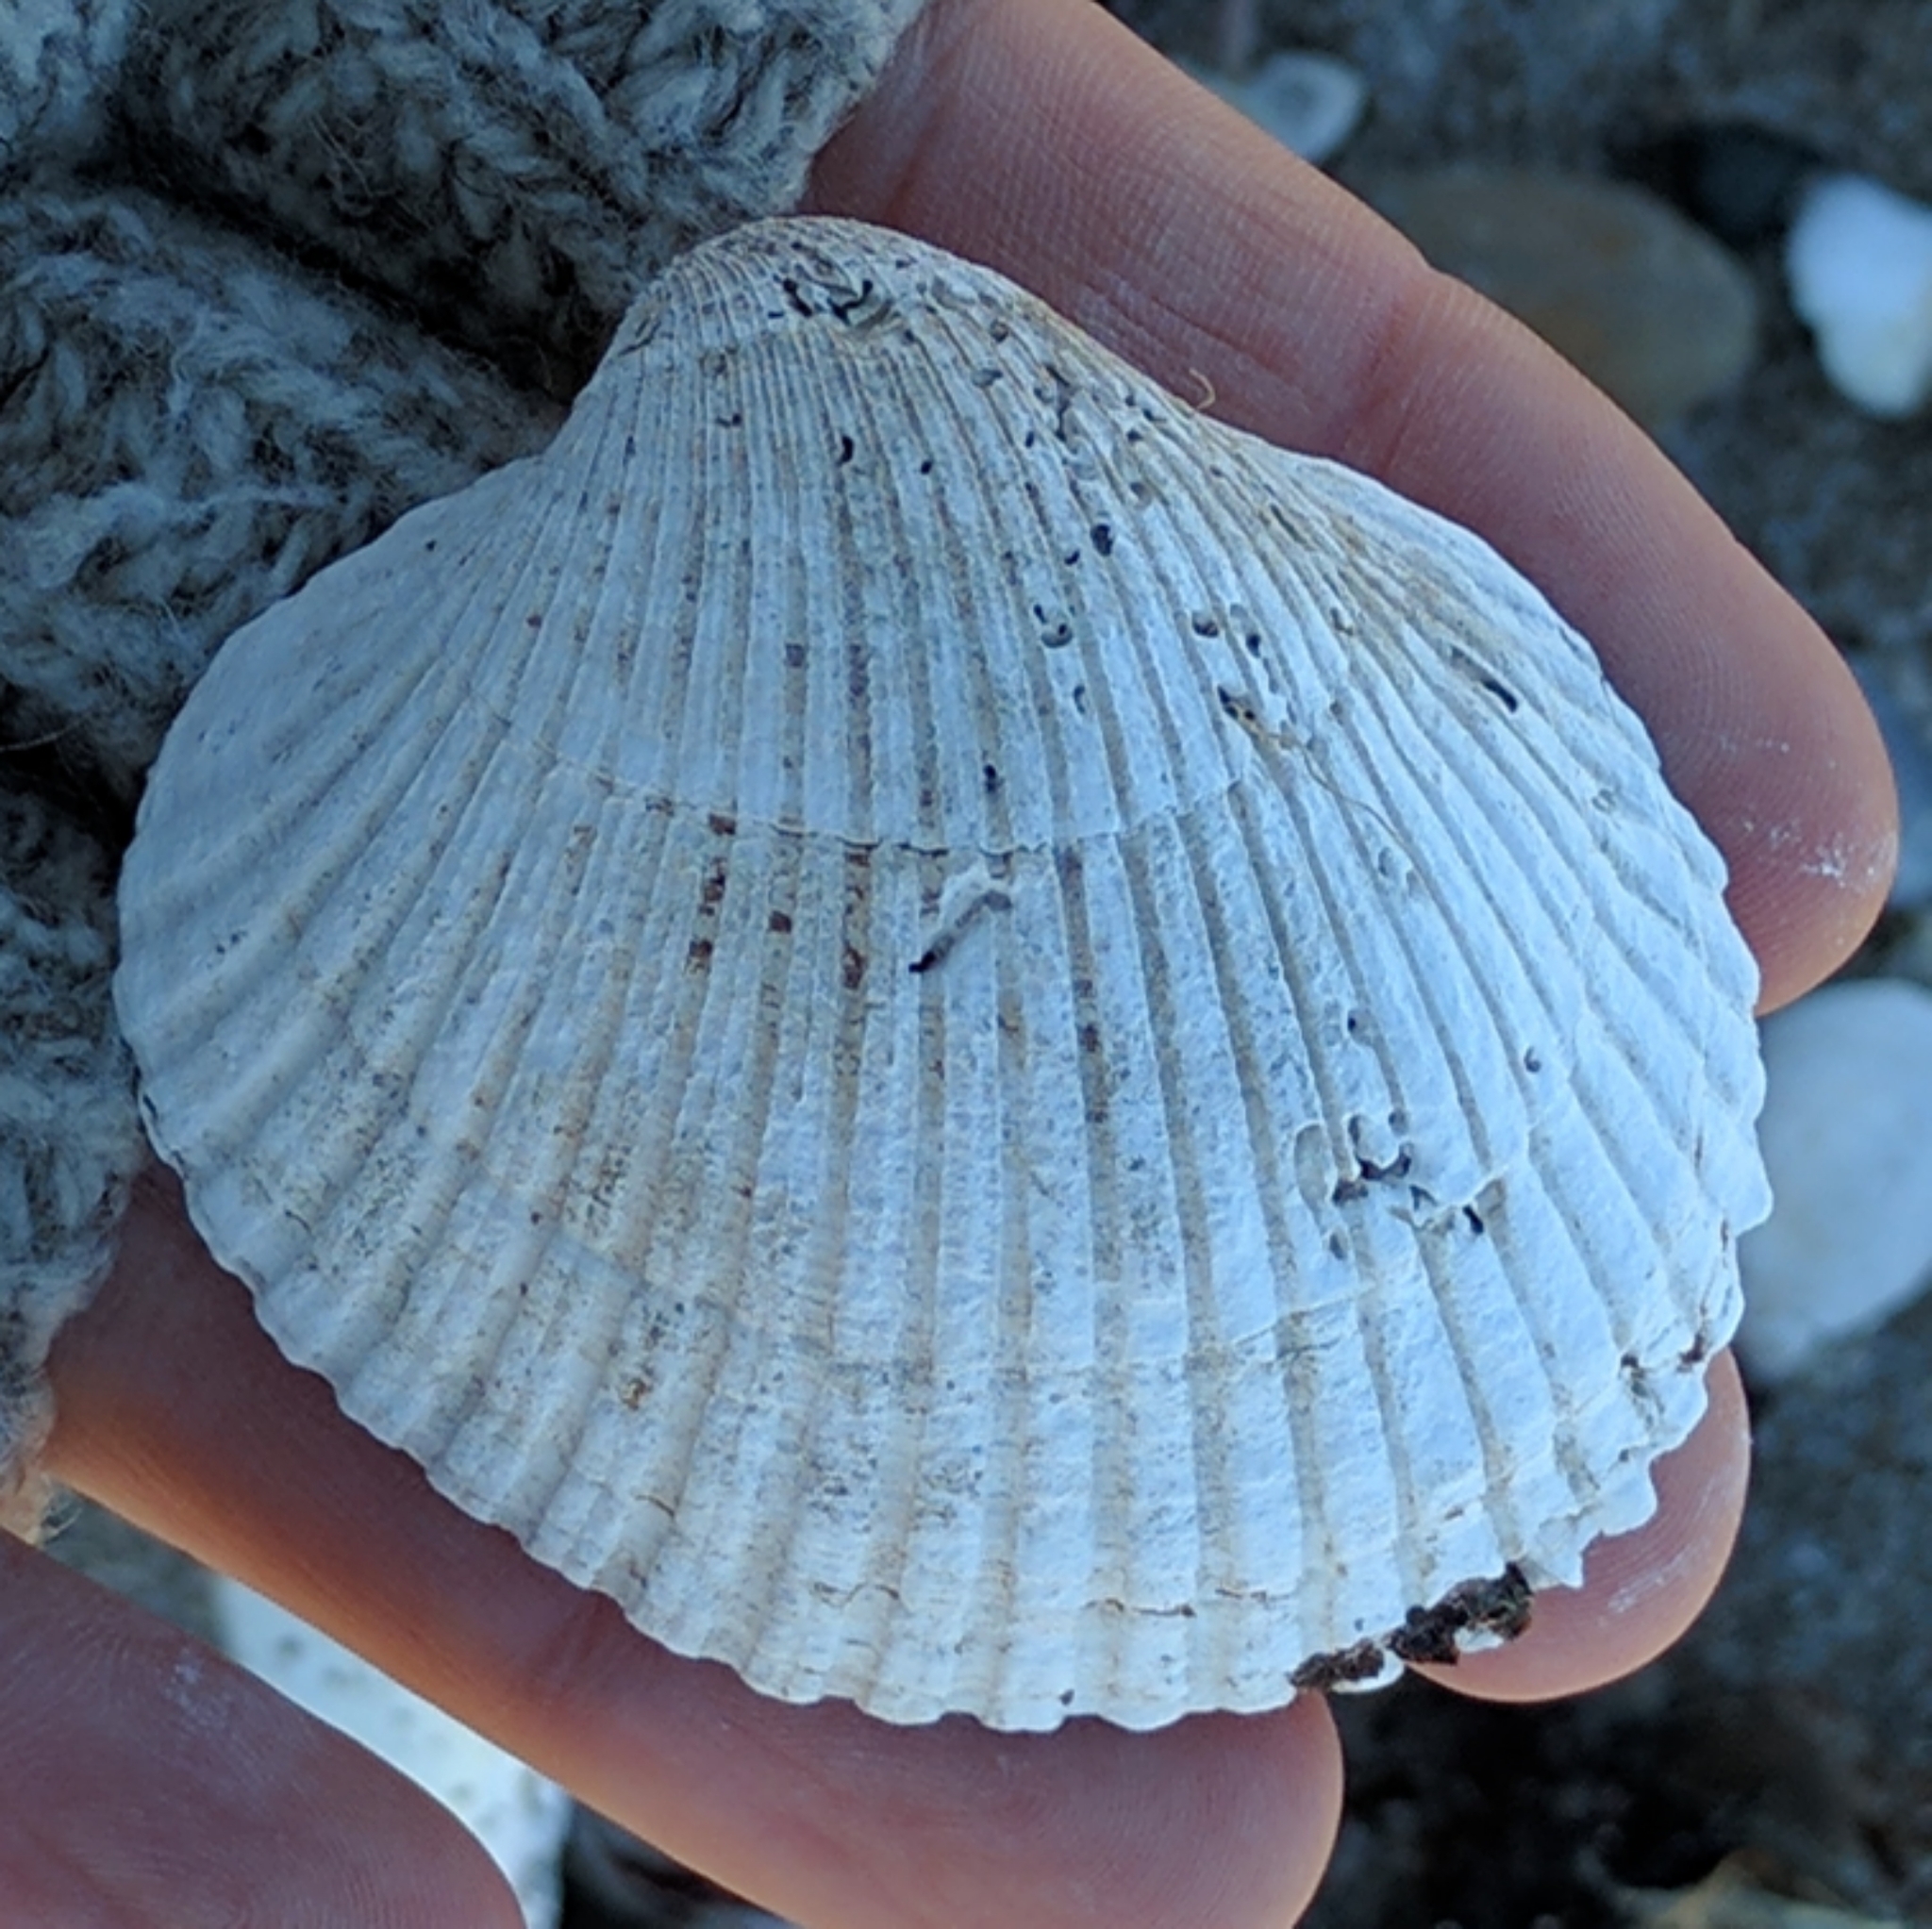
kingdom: Animalia
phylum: Mollusca
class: Bivalvia
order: Arcida
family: Arcidae
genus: Lunarca
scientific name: Lunarca ovalis
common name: Blood ark
